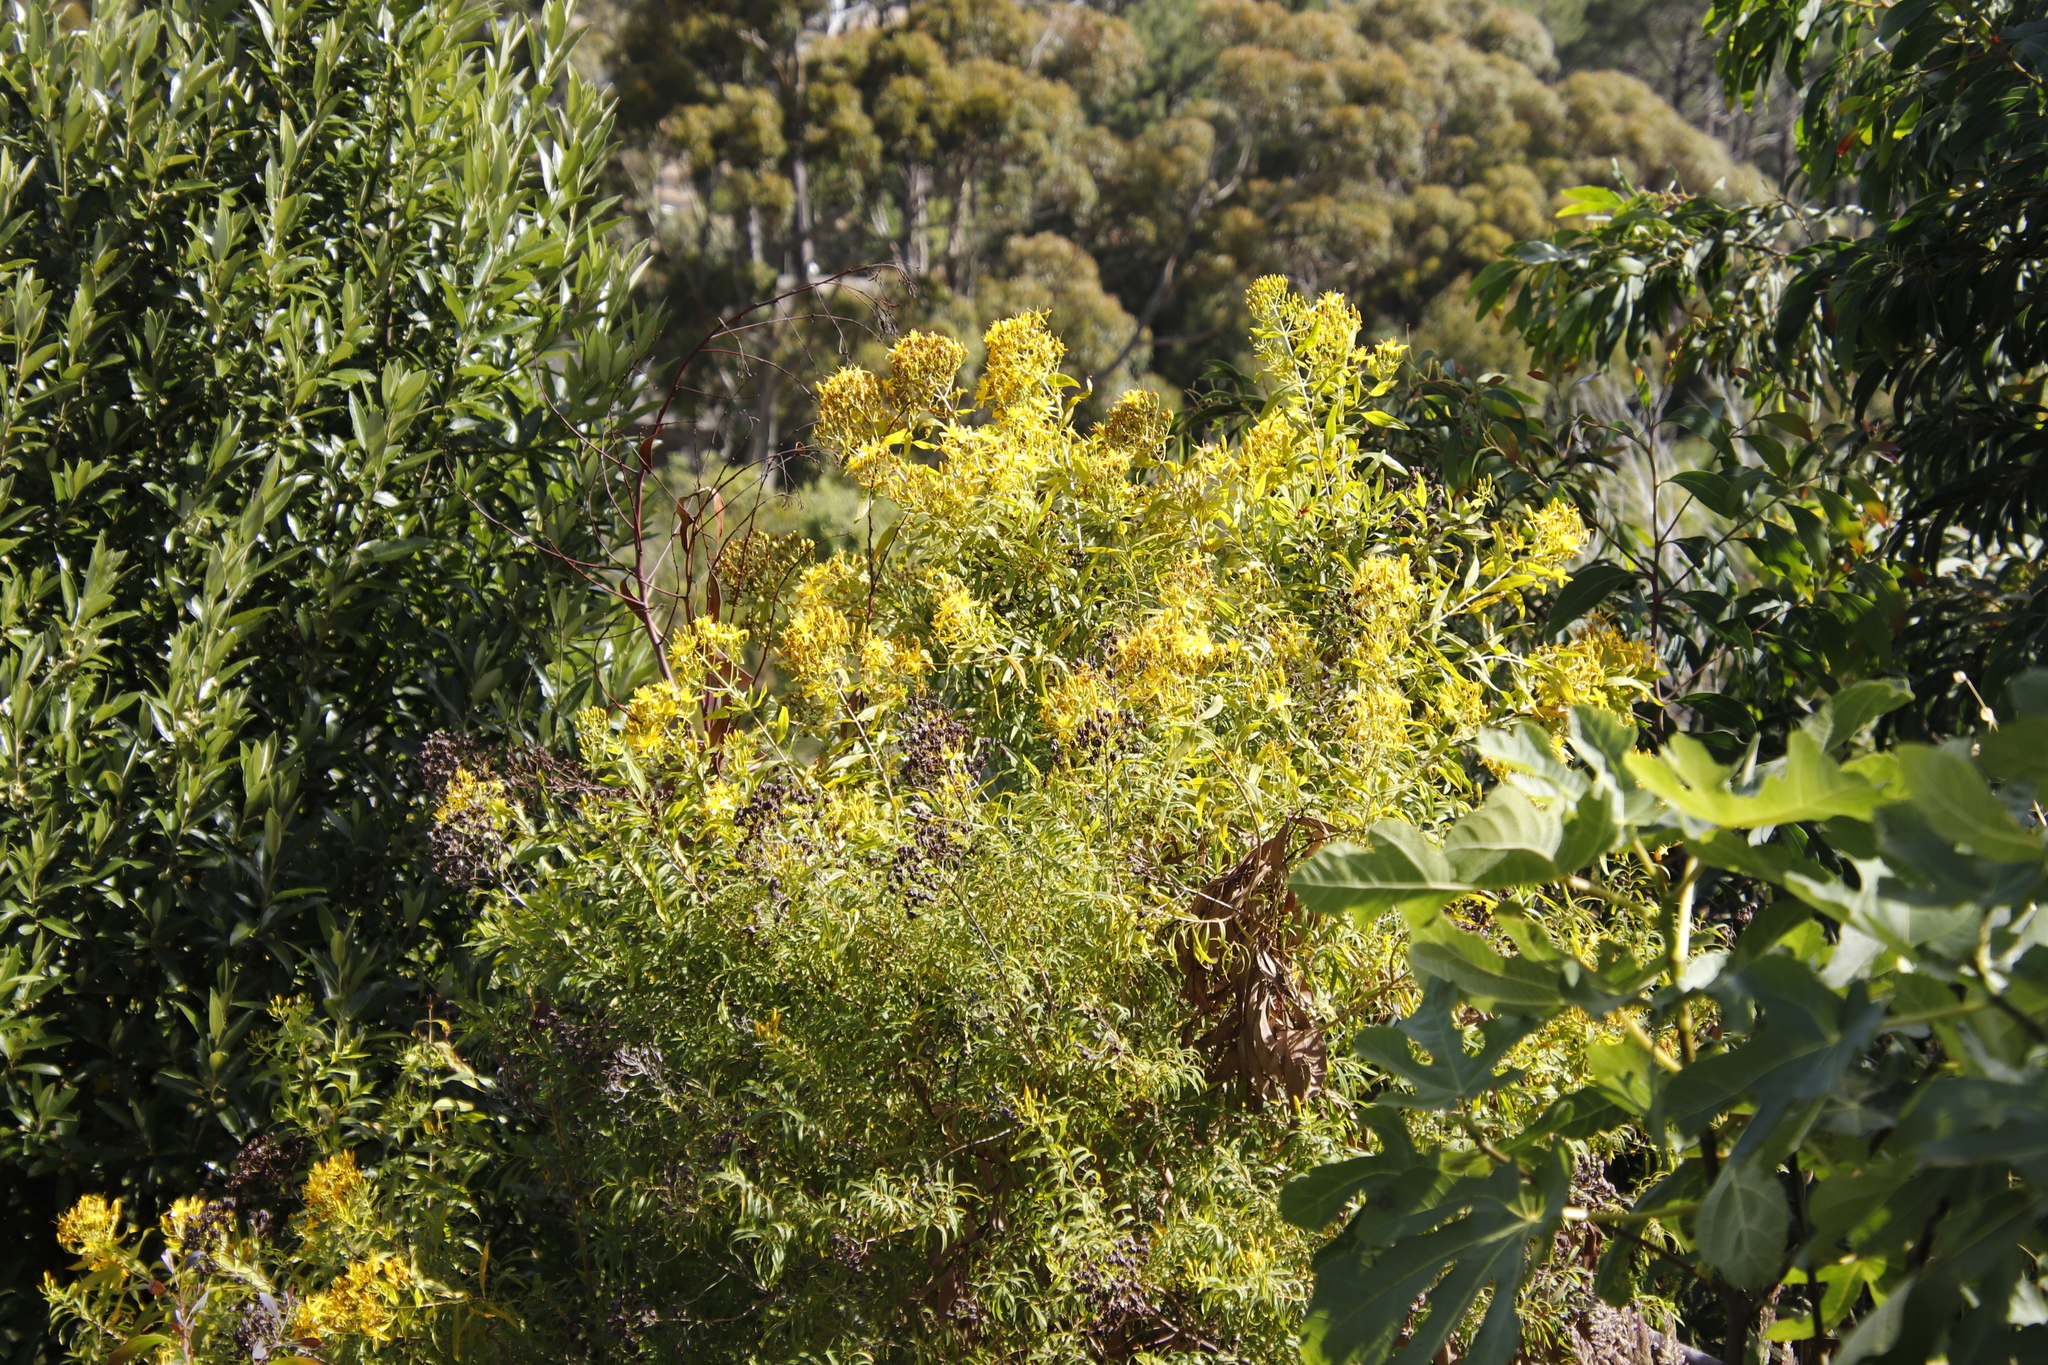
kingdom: Plantae
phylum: Tracheophyta
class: Magnoliopsida
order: Malpighiales
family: Hypericaceae
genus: Hypericum
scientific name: Hypericum canariense
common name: Canary island st. johnswort
